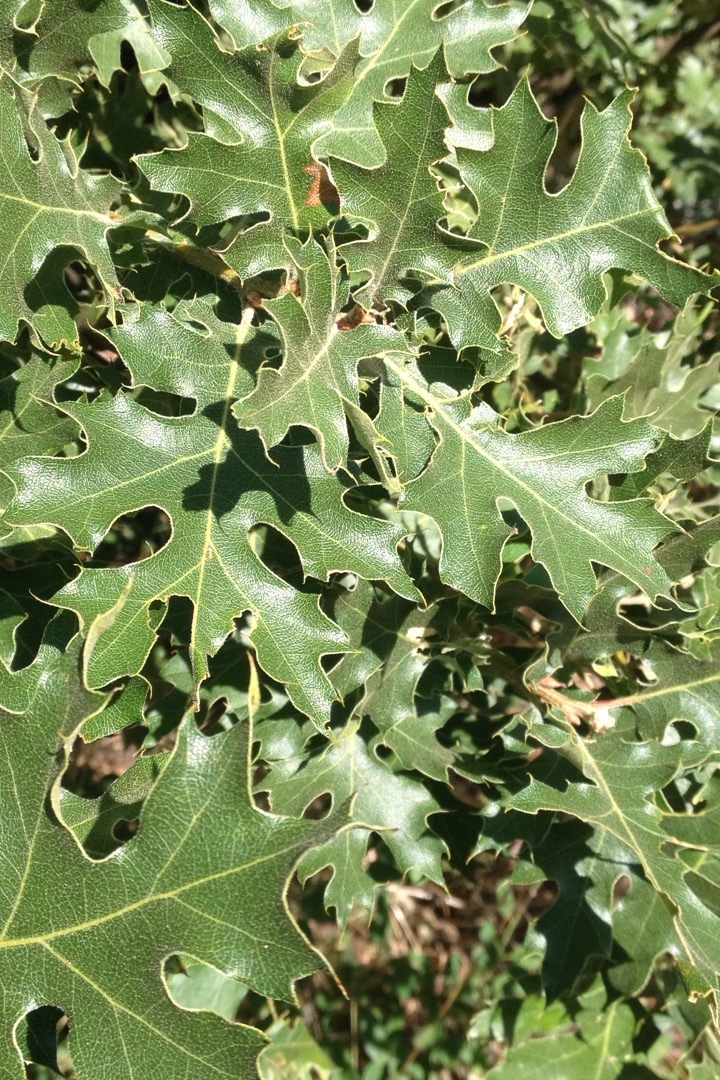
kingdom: Plantae
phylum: Tracheophyta
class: Magnoliopsida
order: Fagales
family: Fagaceae
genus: Quercus
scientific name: Quercus kelloggii
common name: California black oak
